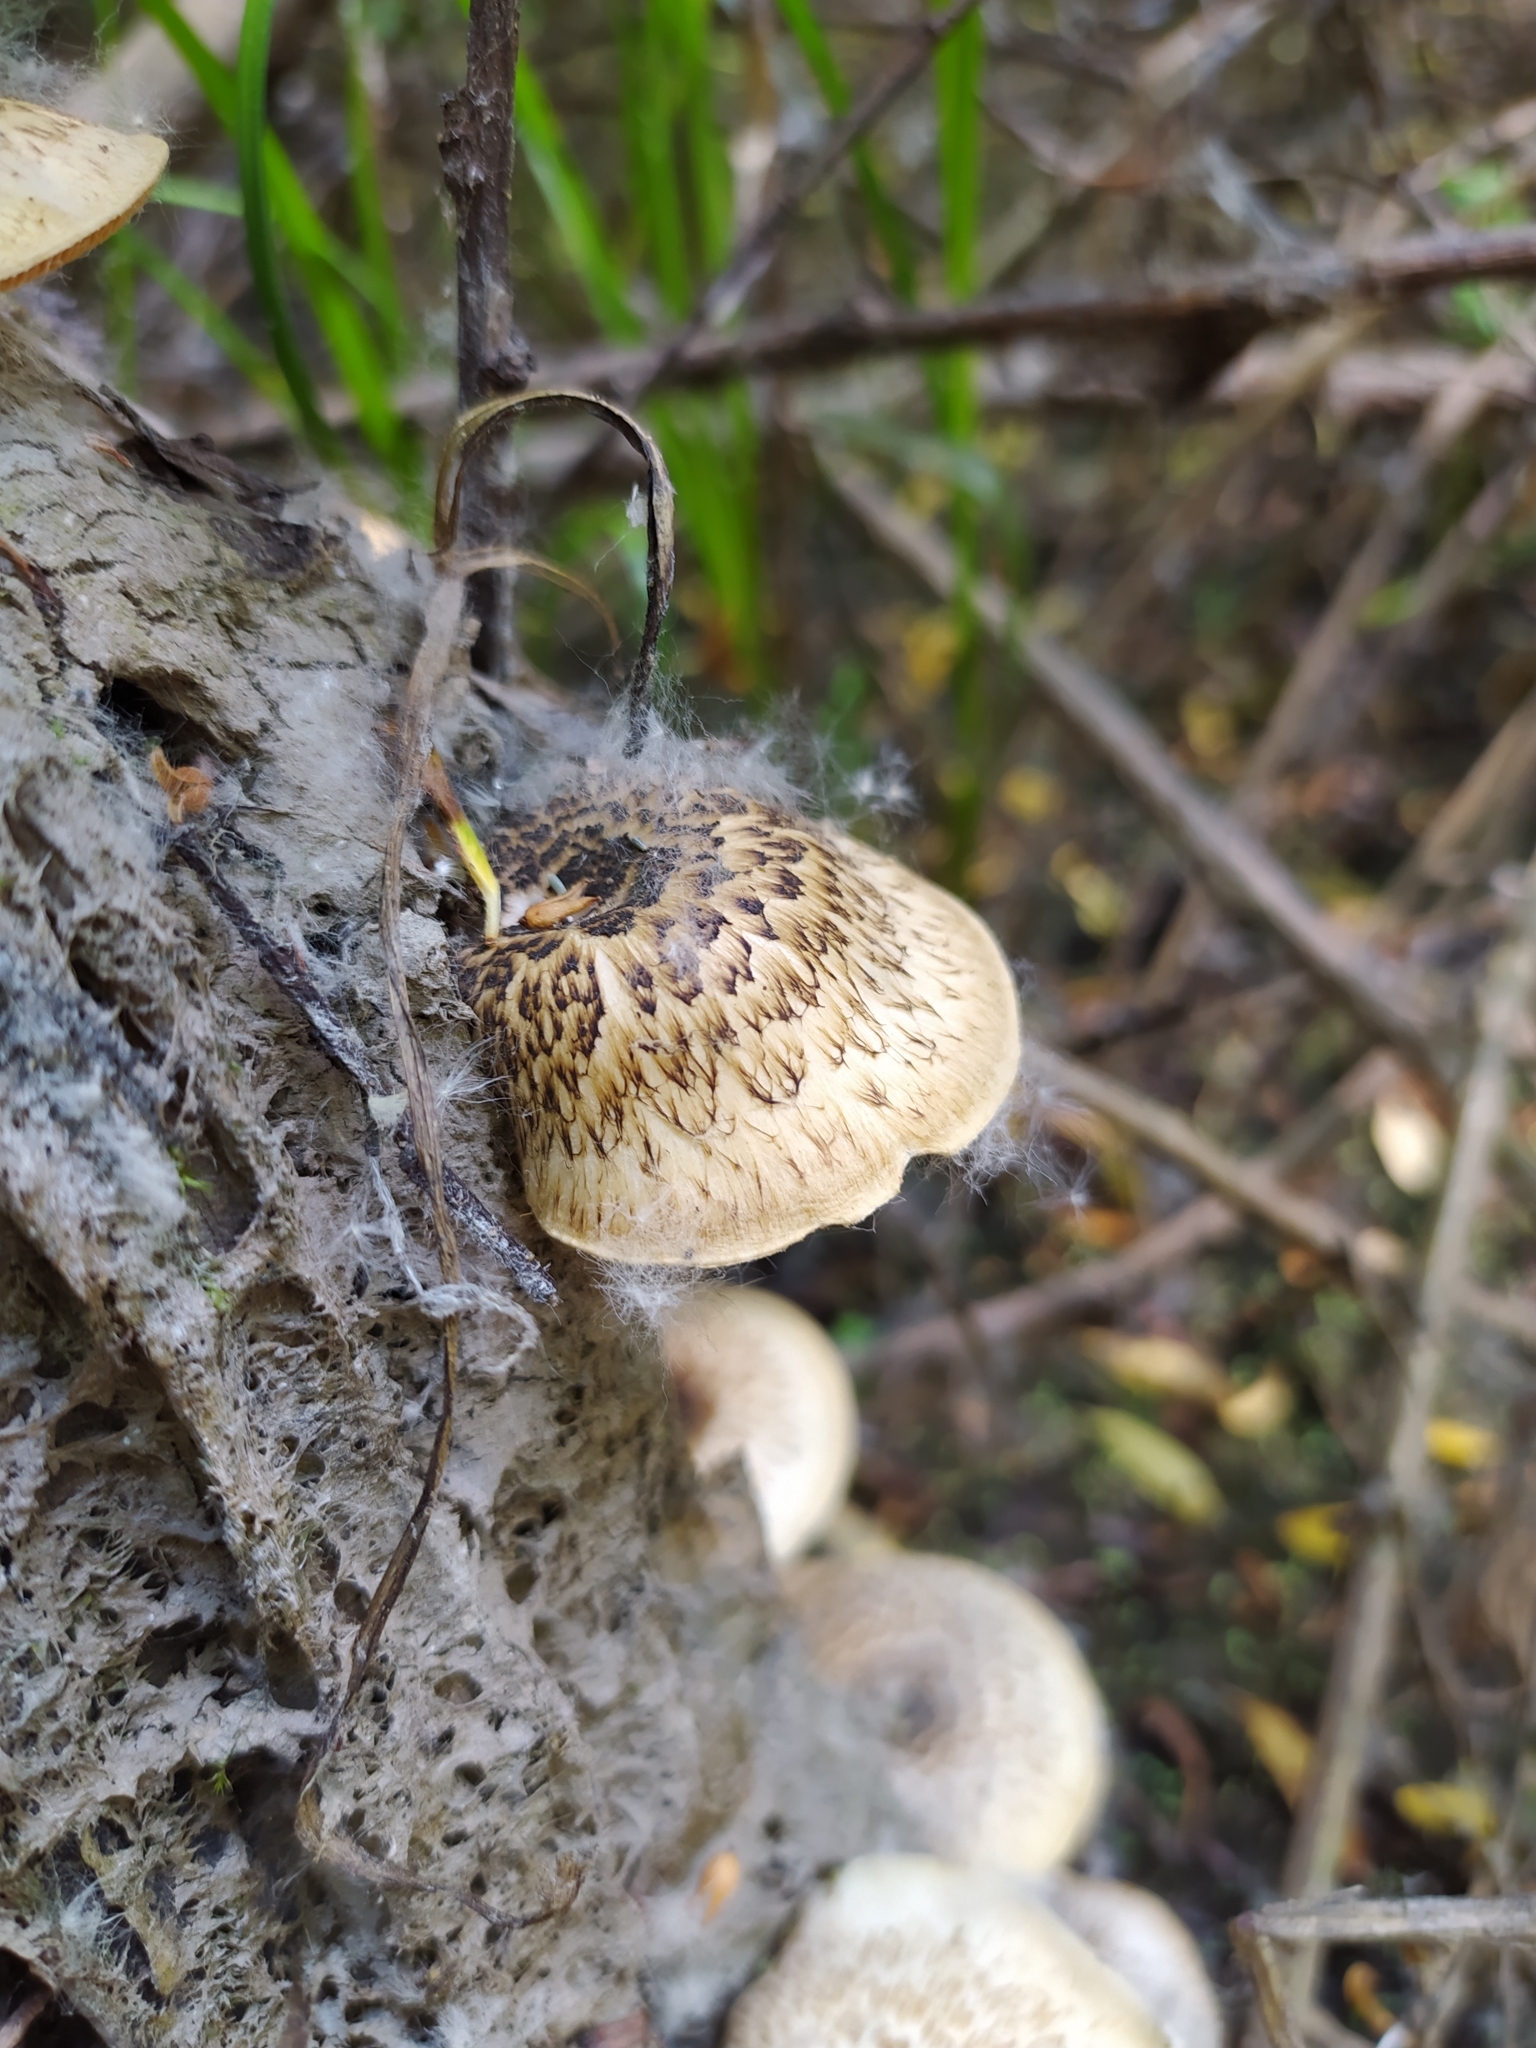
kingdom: Fungi
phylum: Basidiomycota
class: Agaricomycetes
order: Polyporales
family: Polyporaceae
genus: Lentinus
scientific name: Lentinus tigrinus
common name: Tiger sawgill
